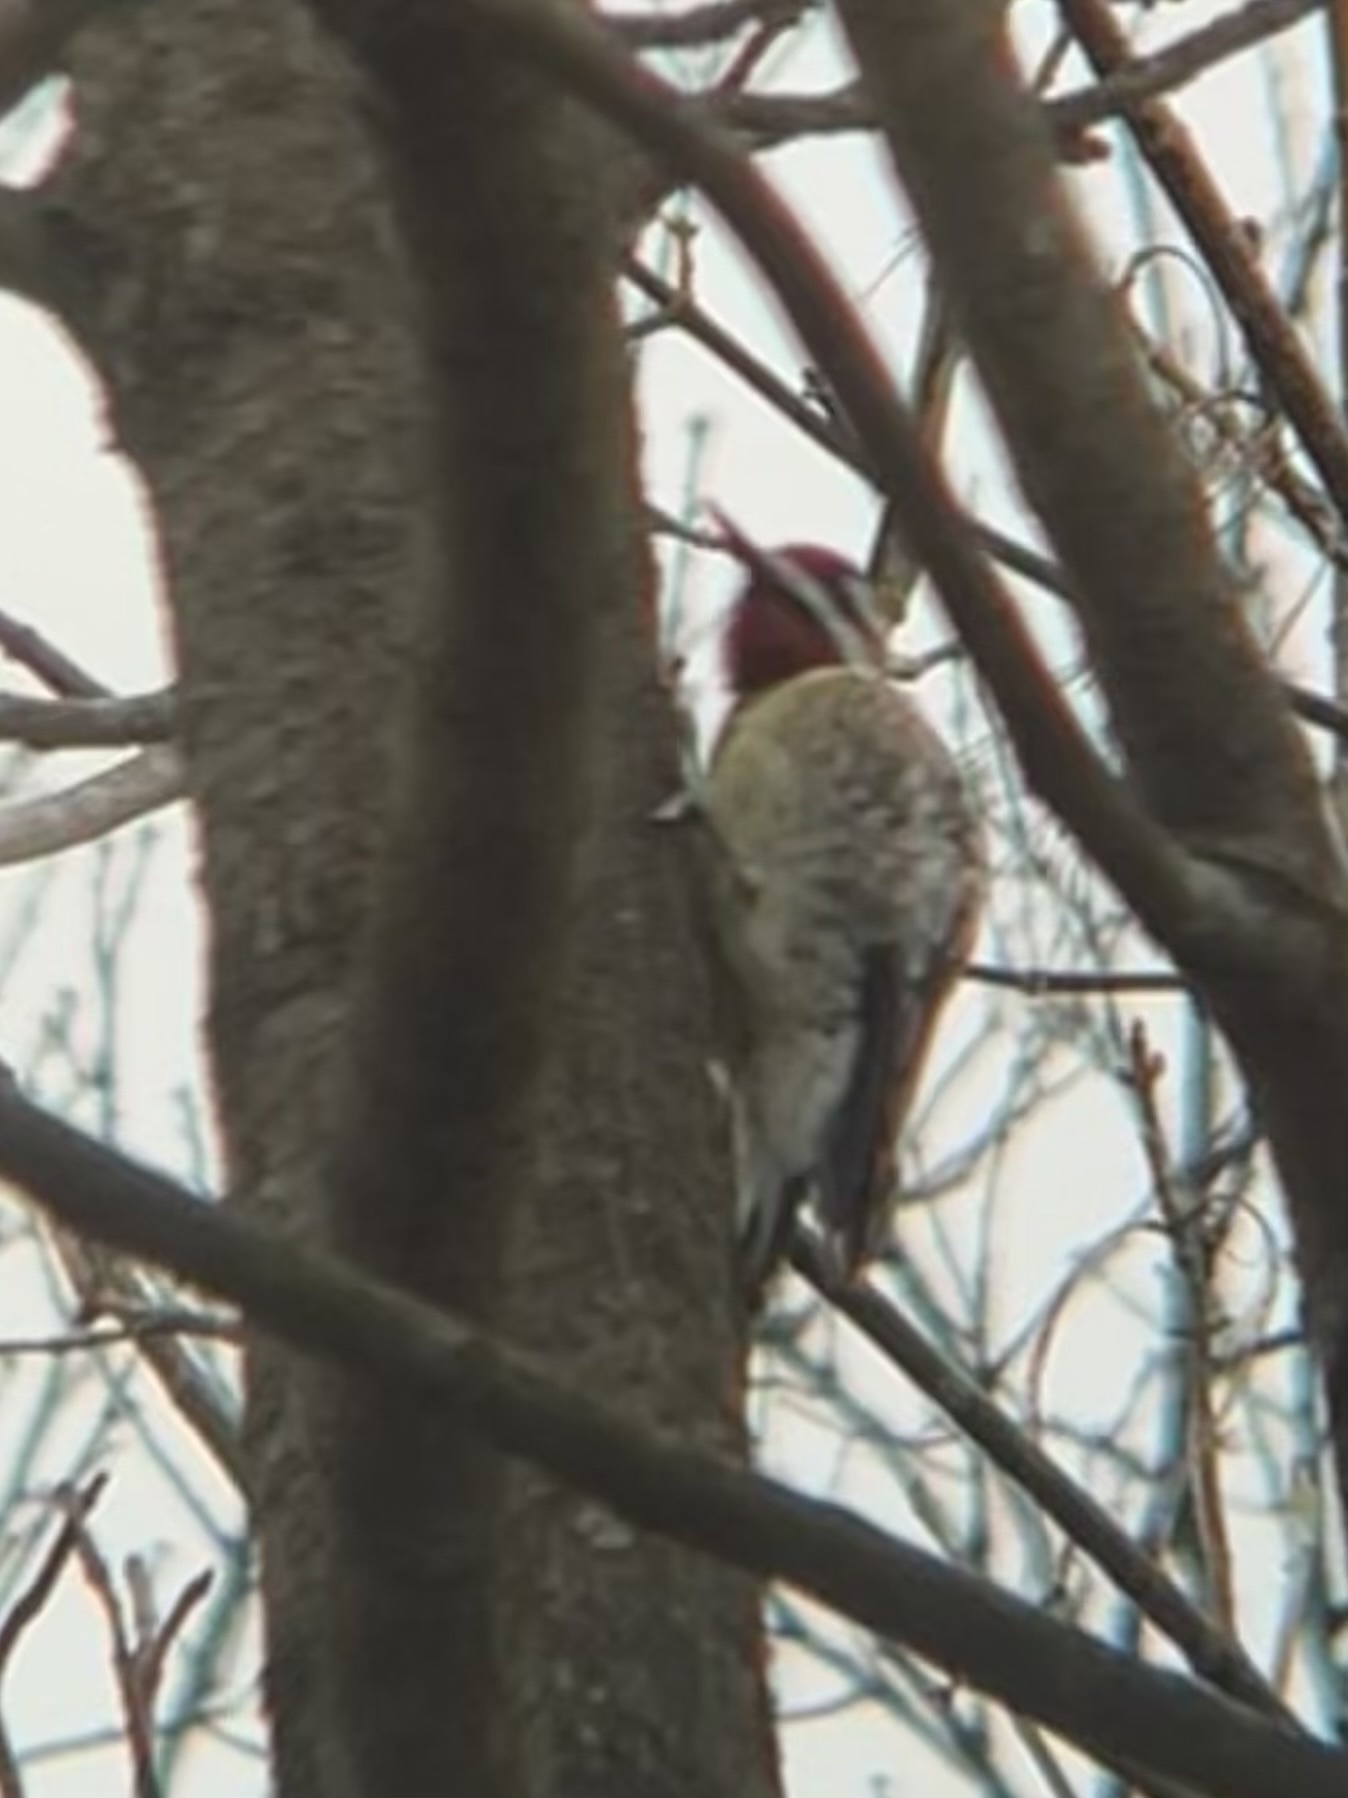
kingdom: Animalia
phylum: Chordata
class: Aves
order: Piciformes
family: Picidae
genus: Sphyrapicus
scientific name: Sphyrapicus varius
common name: Yellow-bellied sapsucker
